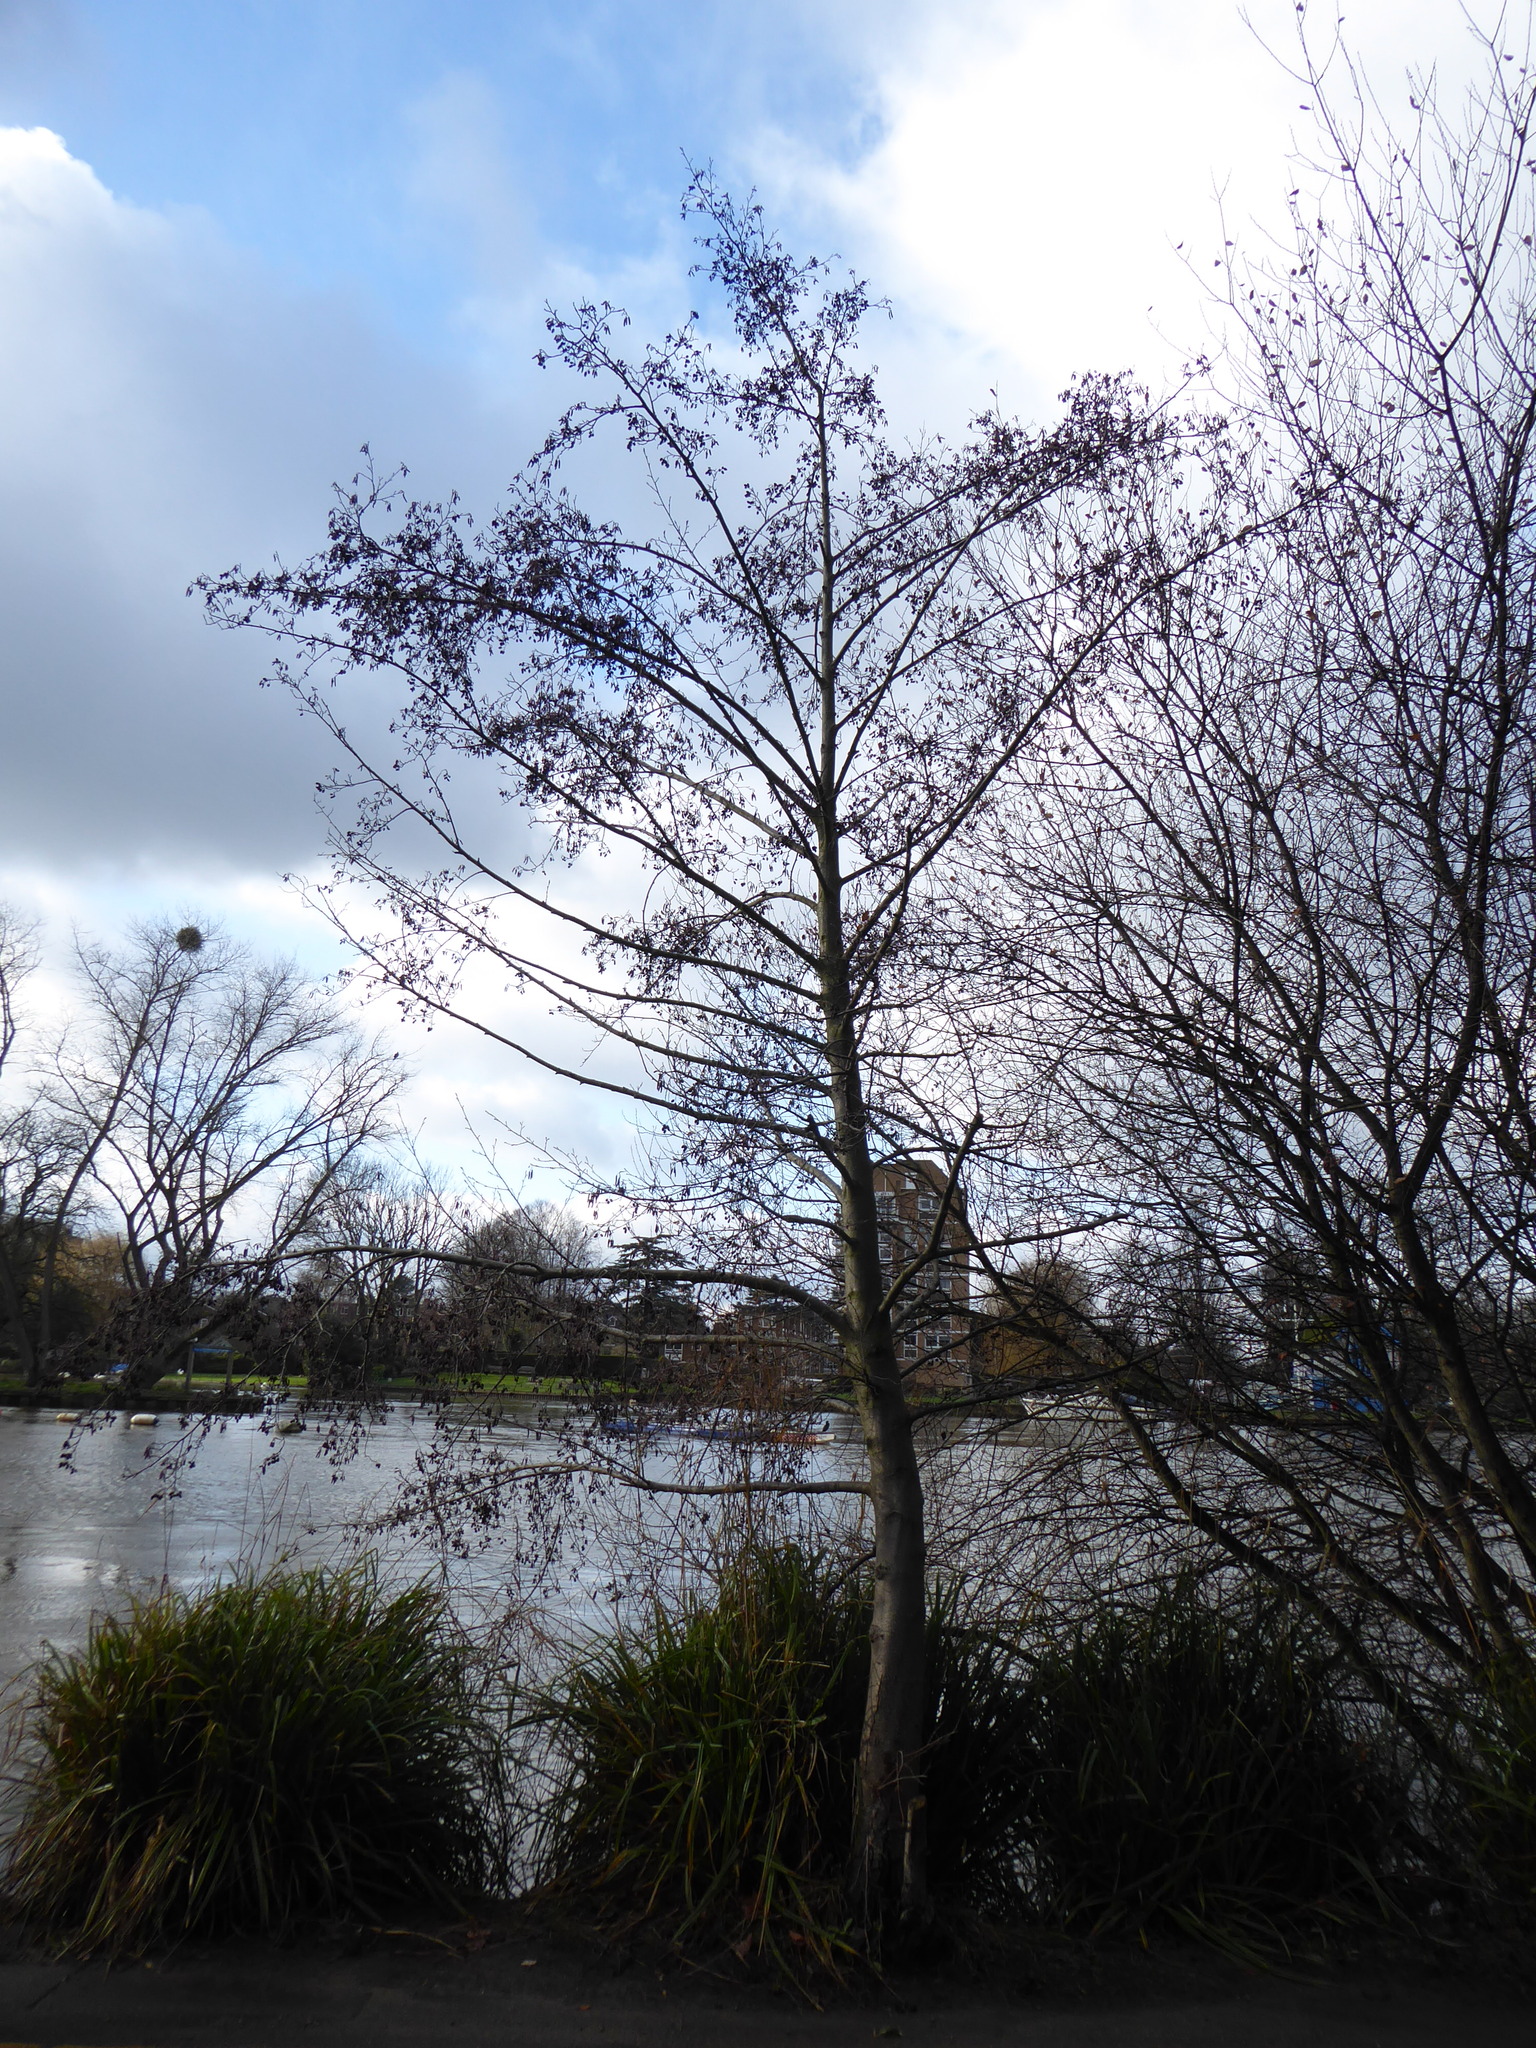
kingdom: Plantae
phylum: Tracheophyta
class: Magnoliopsida
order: Fagales
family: Betulaceae
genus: Alnus
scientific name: Alnus glutinosa
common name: Black alder
